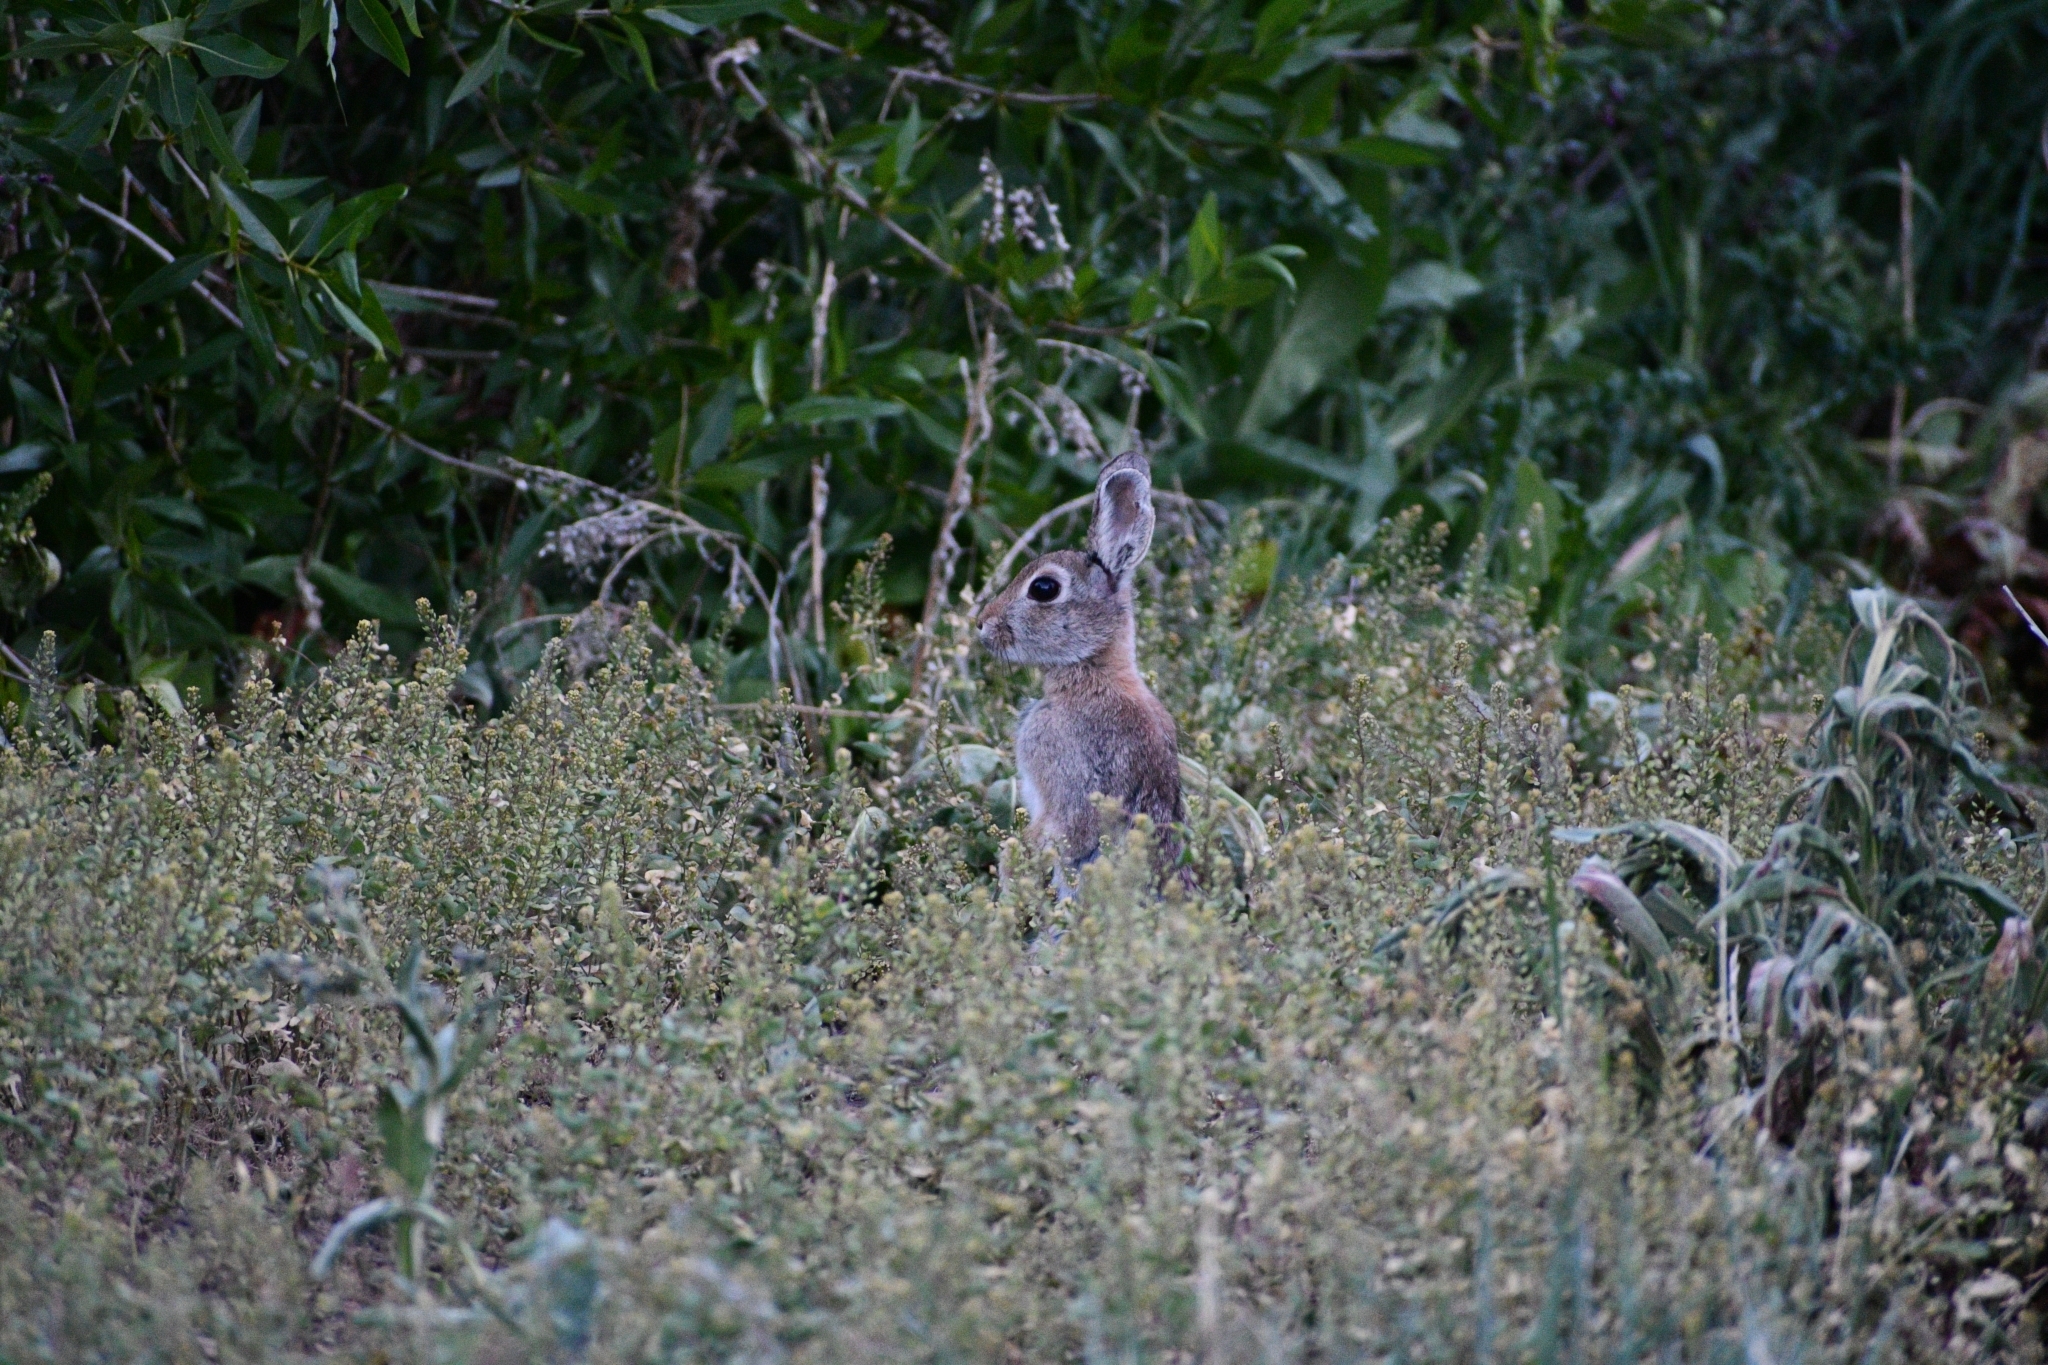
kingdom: Animalia
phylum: Chordata
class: Mammalia
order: Lagomorpha
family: Leporidae
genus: Sylvilagus
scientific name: Sylvilagus nuttallii
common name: Mountain cottontail
